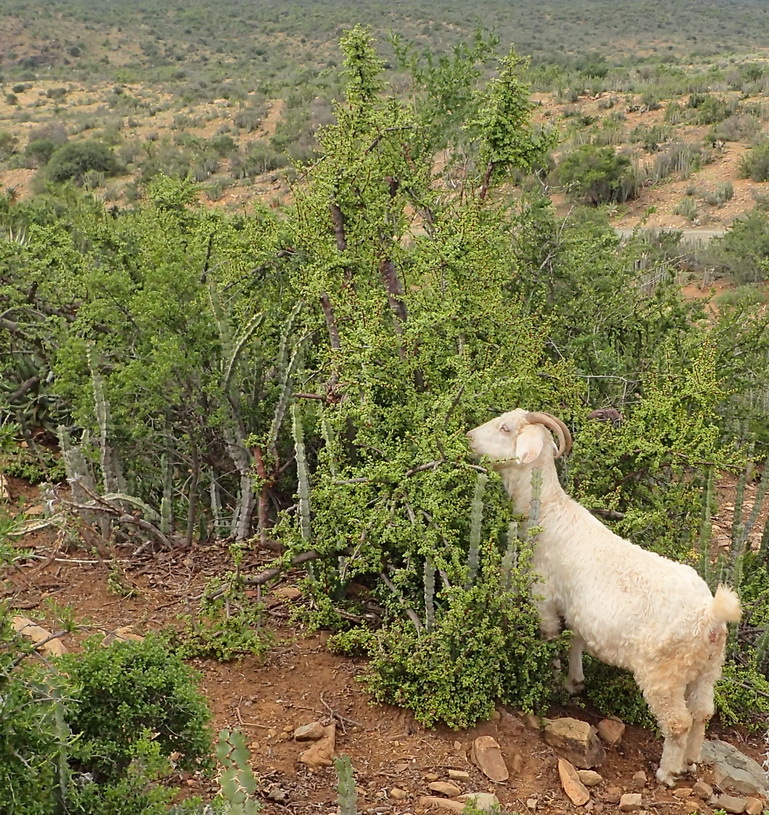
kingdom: Plantae
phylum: Tracheophyta
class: Magnoliopsida
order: Caryophyllales
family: Didiereaceae
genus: Portulacaria
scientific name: Portulacaria afra
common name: Elephant-bush
